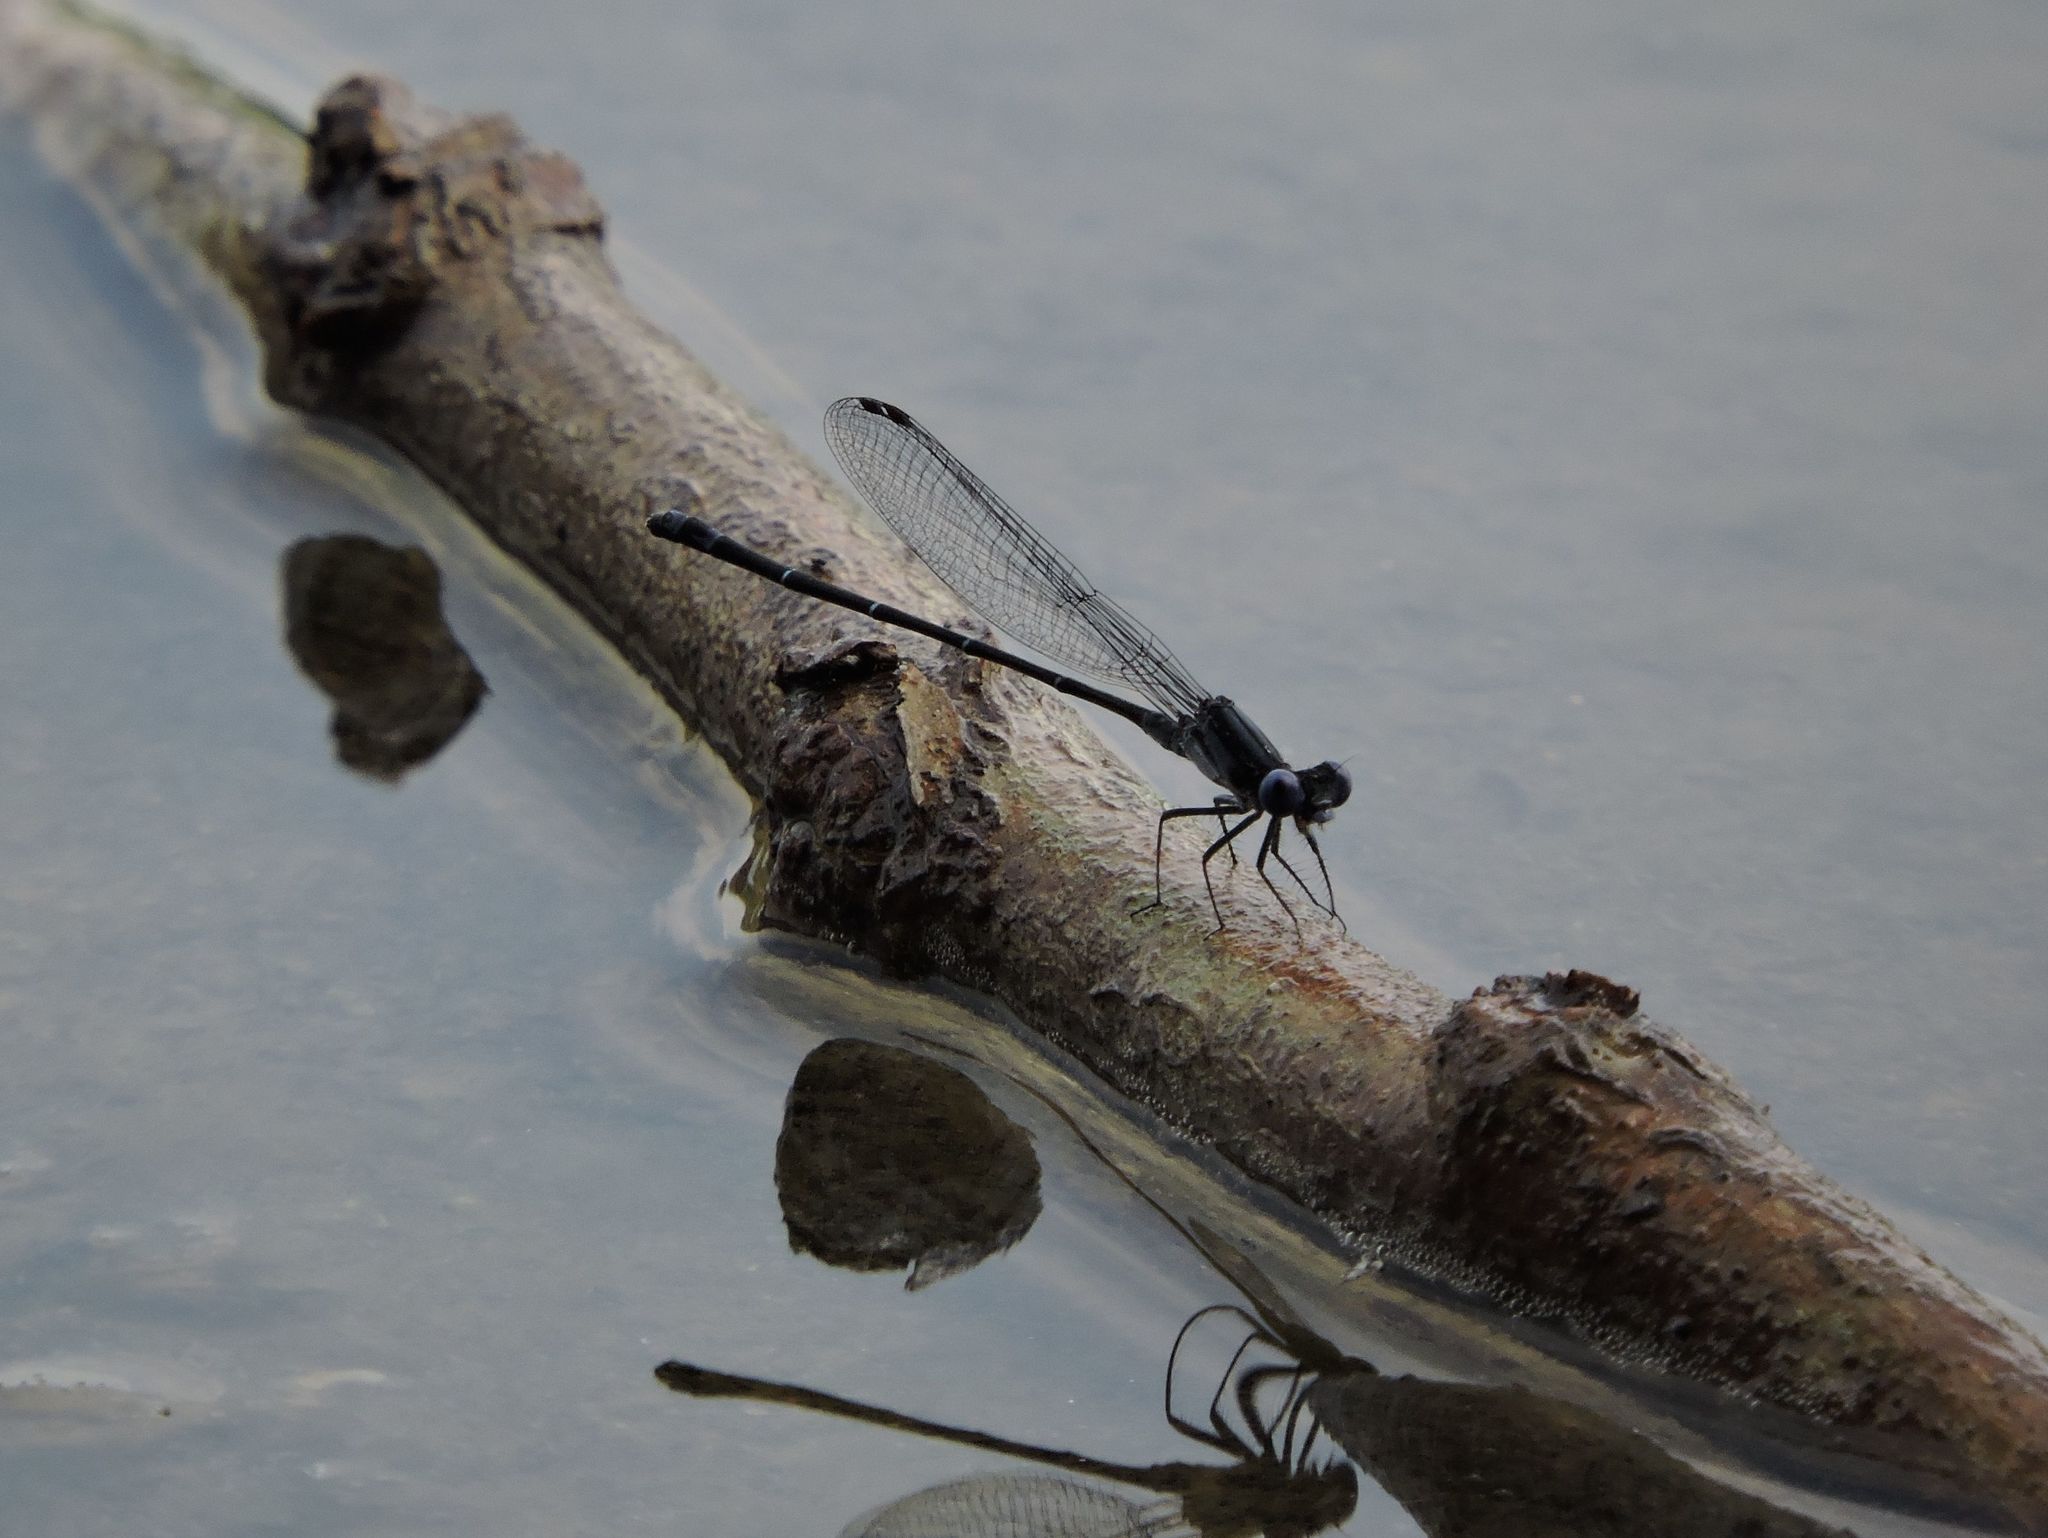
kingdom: Animalia
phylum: Arthropoda
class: Insecta
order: Odonata
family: Coenagrionidae
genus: Argia
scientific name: Argia translata
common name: Dusky dancer
